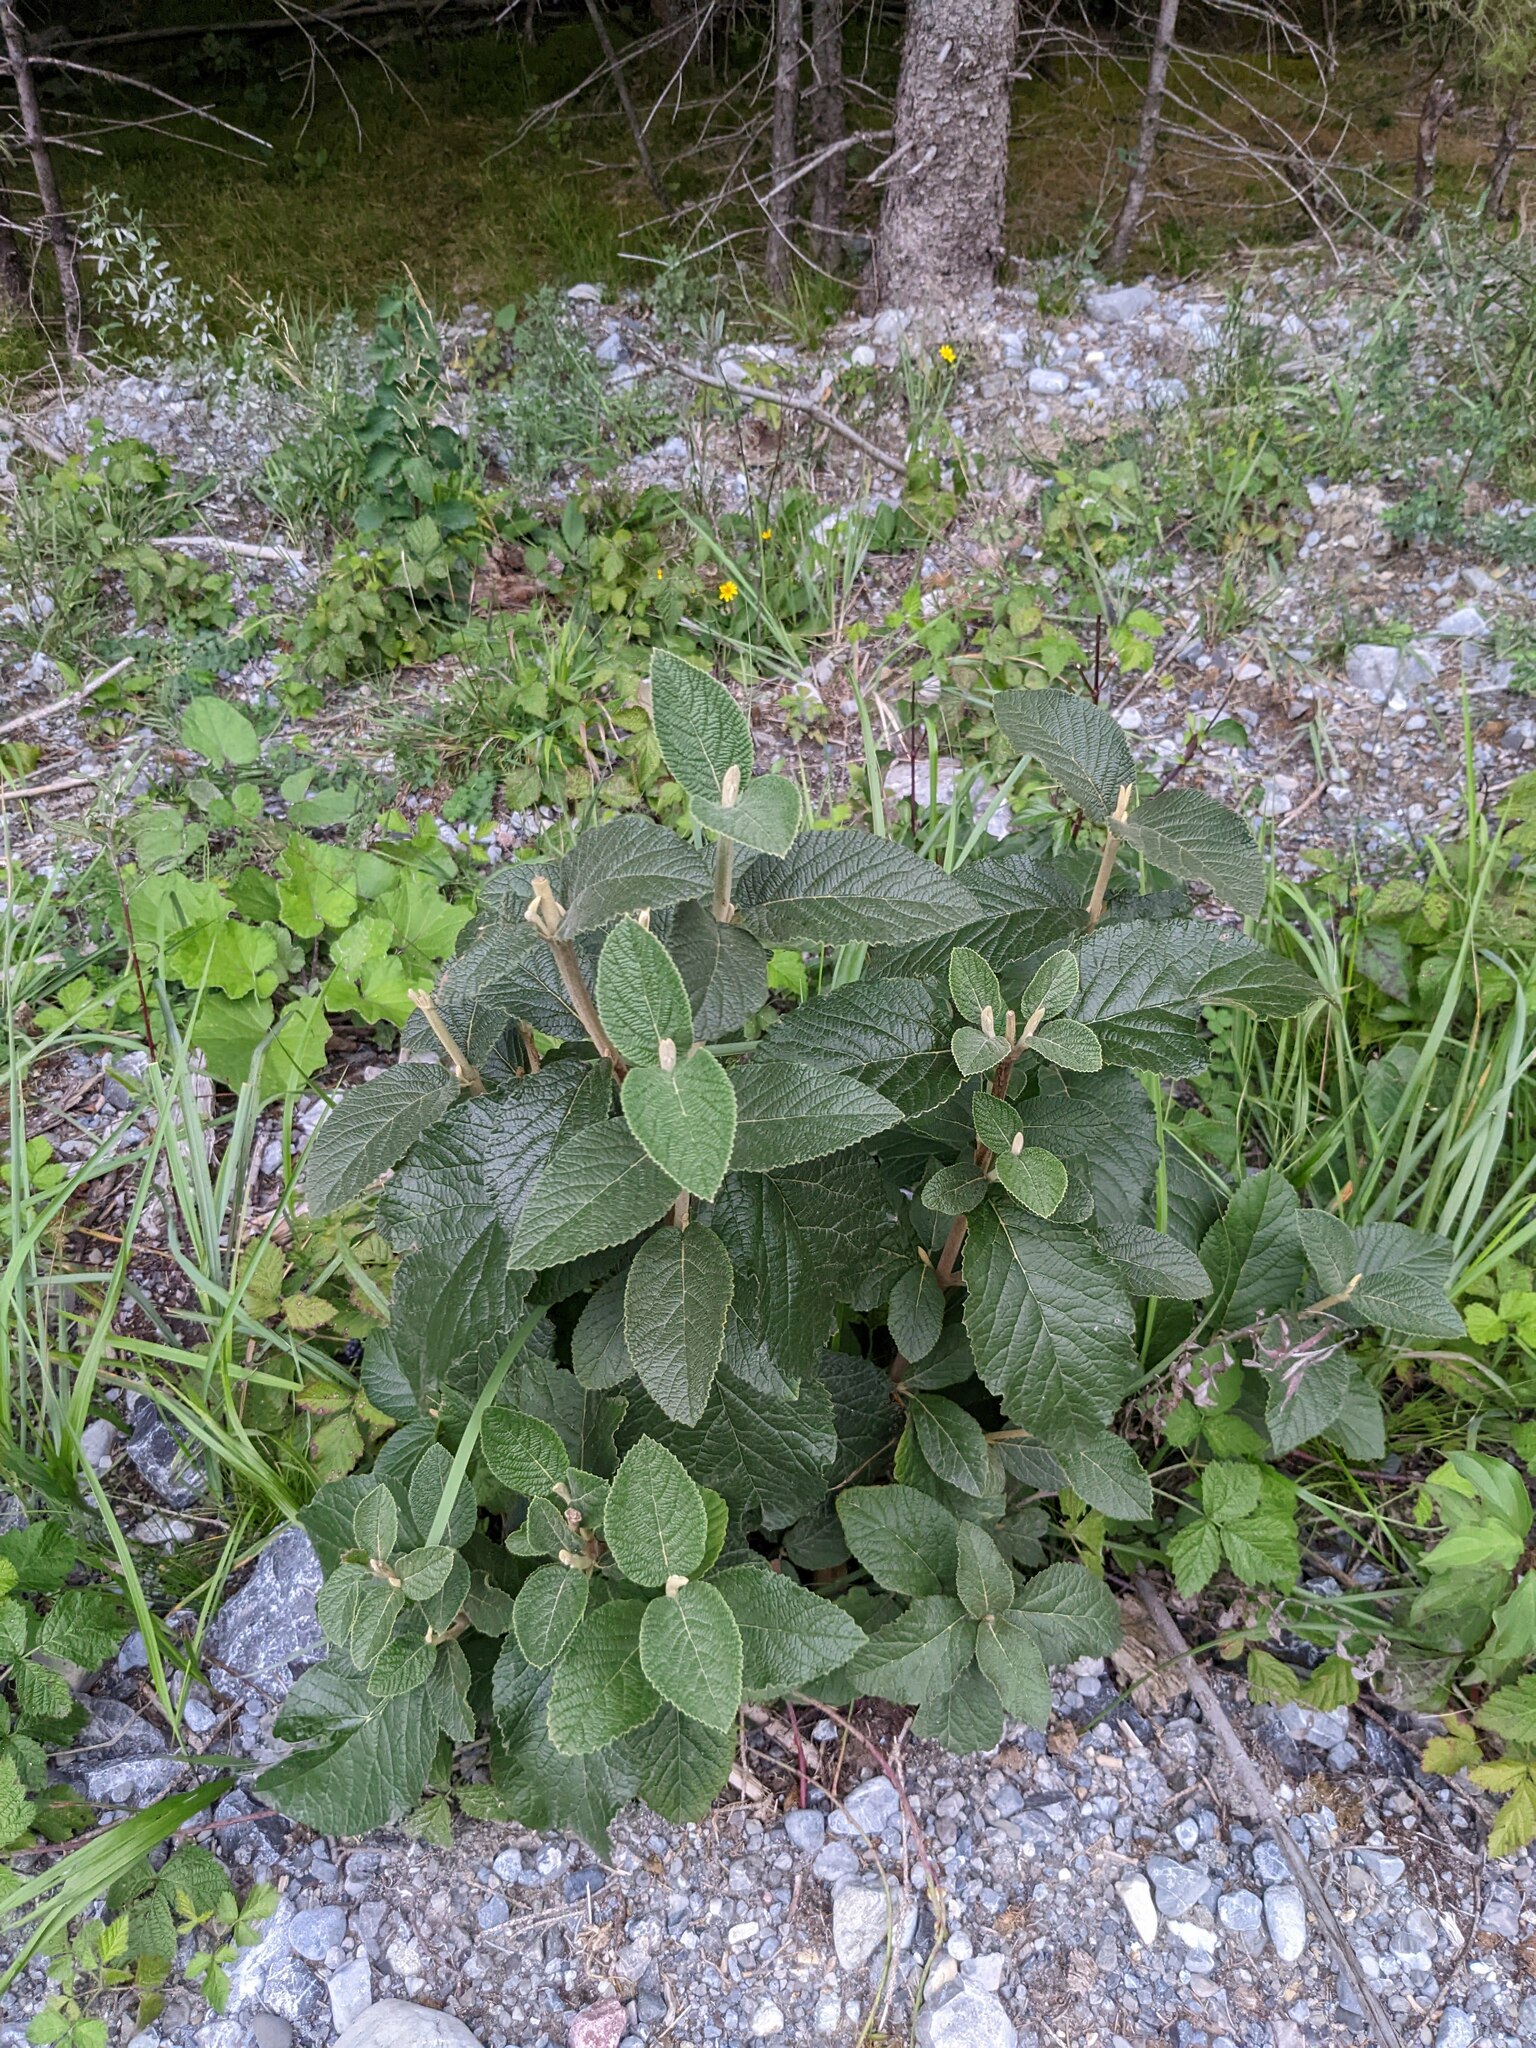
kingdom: Plantae
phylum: Tracheophyta
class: Magnoliopsida
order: Dipsacales
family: Viburnaceae
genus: Viburnum
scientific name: Viburnum lantana
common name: Wayfaring tree
